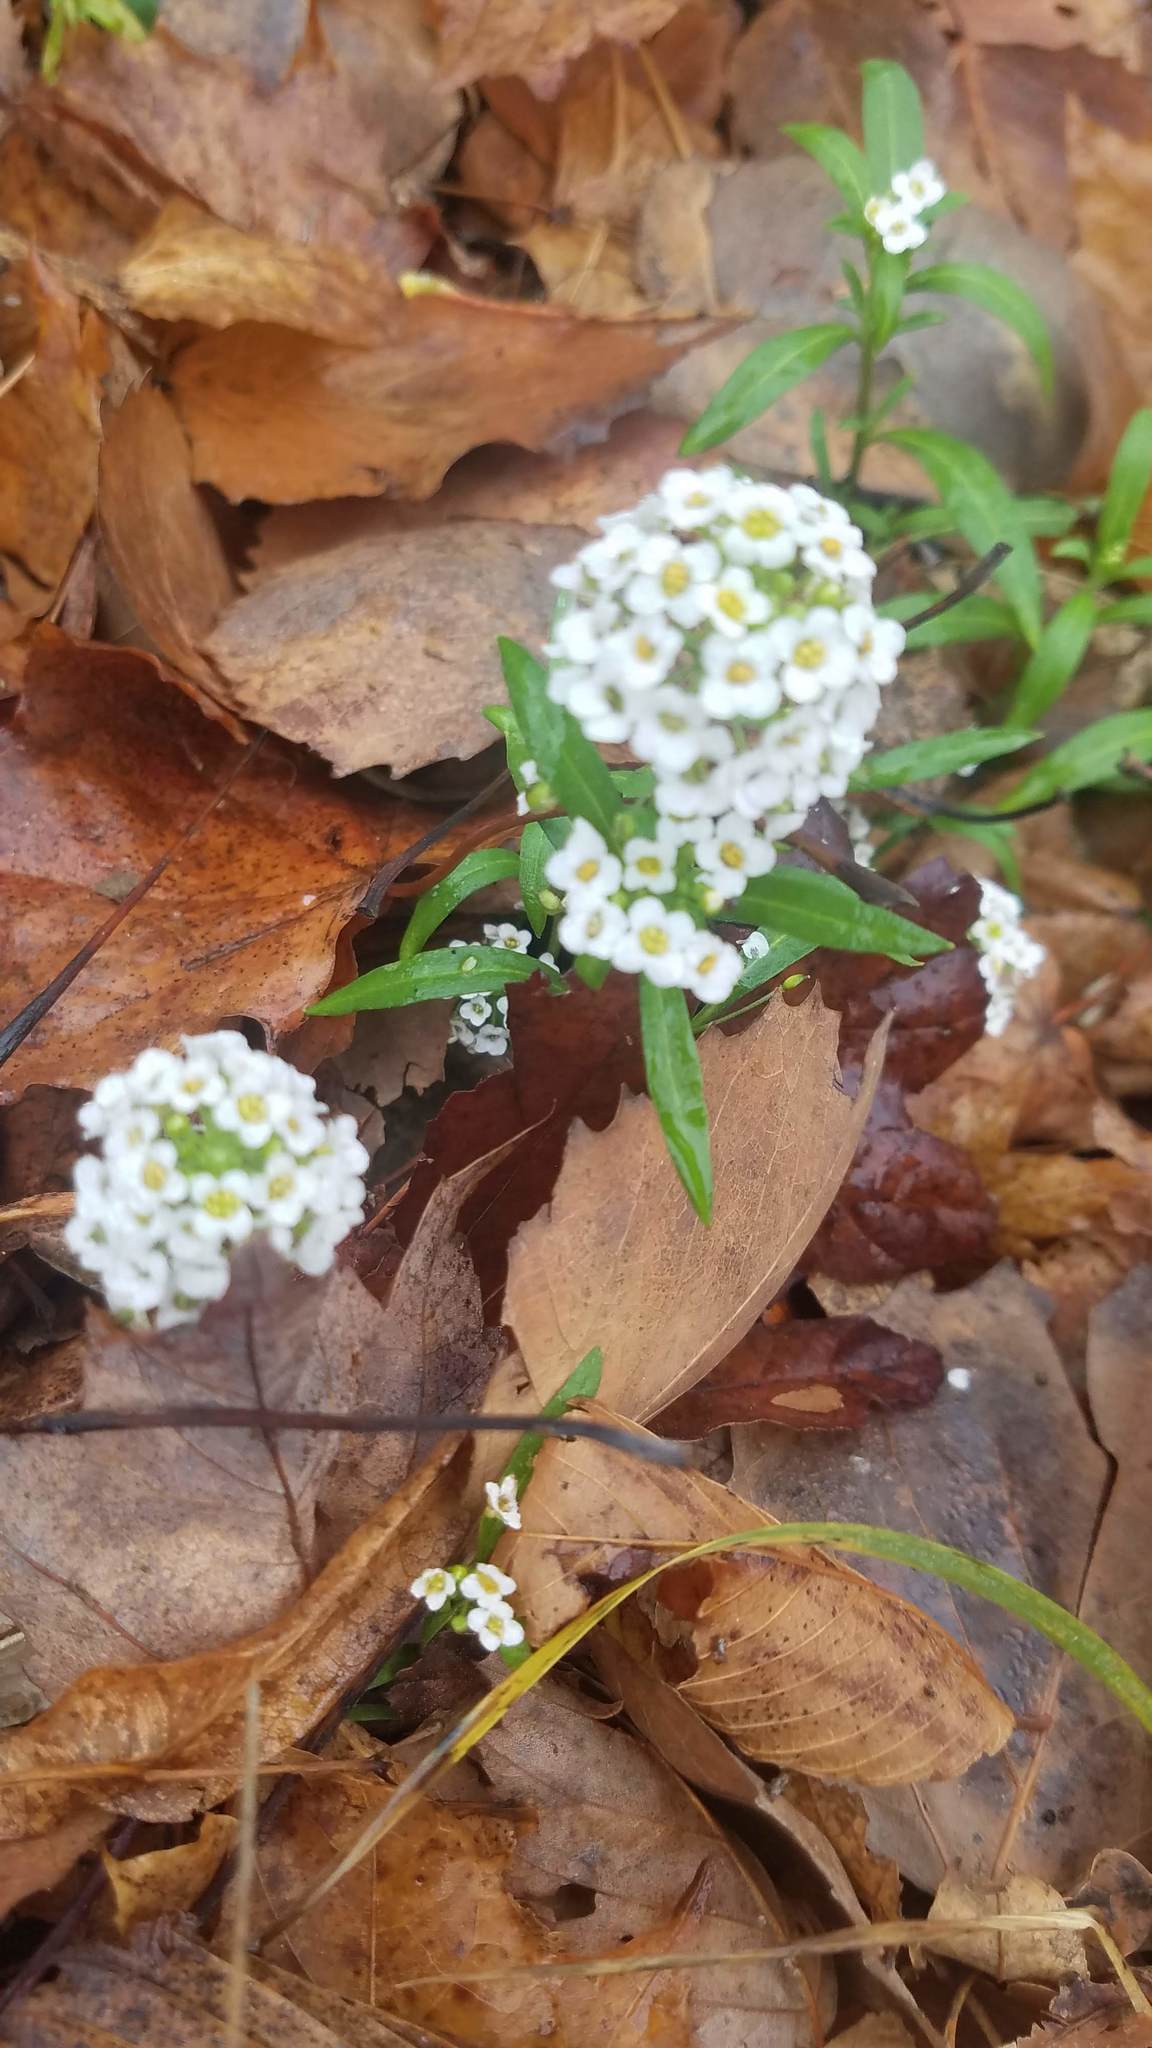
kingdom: Plantae
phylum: Tracheophyta
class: Magnoliopsida
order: Brassicales
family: Brassicaceae
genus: Lobularia
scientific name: Lobularia maritima
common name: Sweet alison
